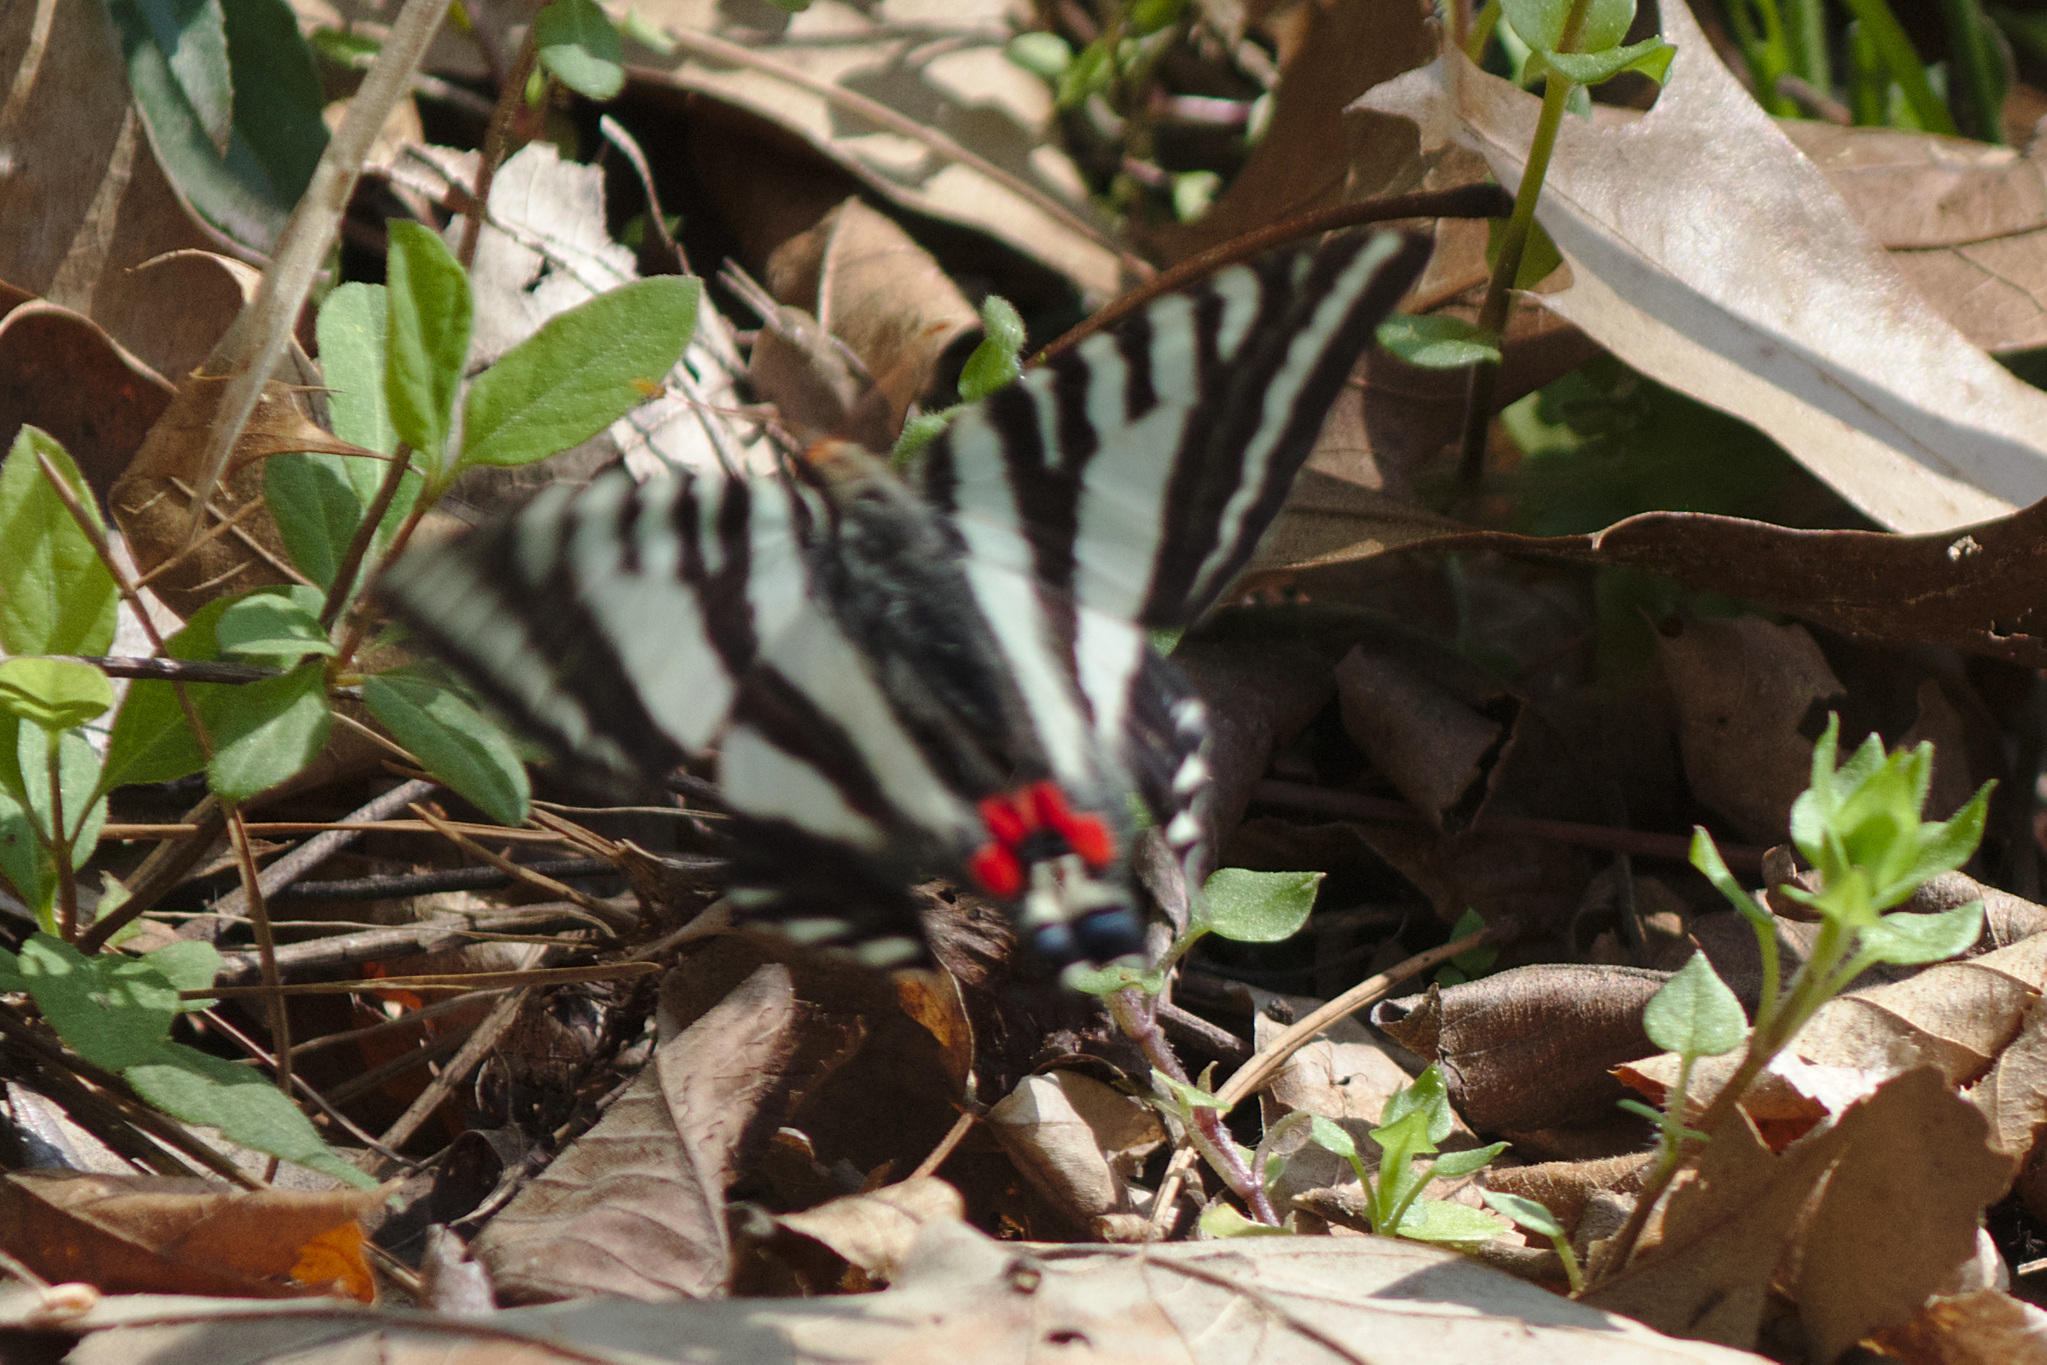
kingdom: Animalia
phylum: Arthropoda
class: Insecta
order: Lepidoptera
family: Papilionidae
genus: Protographium
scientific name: Protographium marcellus
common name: Zebra swallowtail
